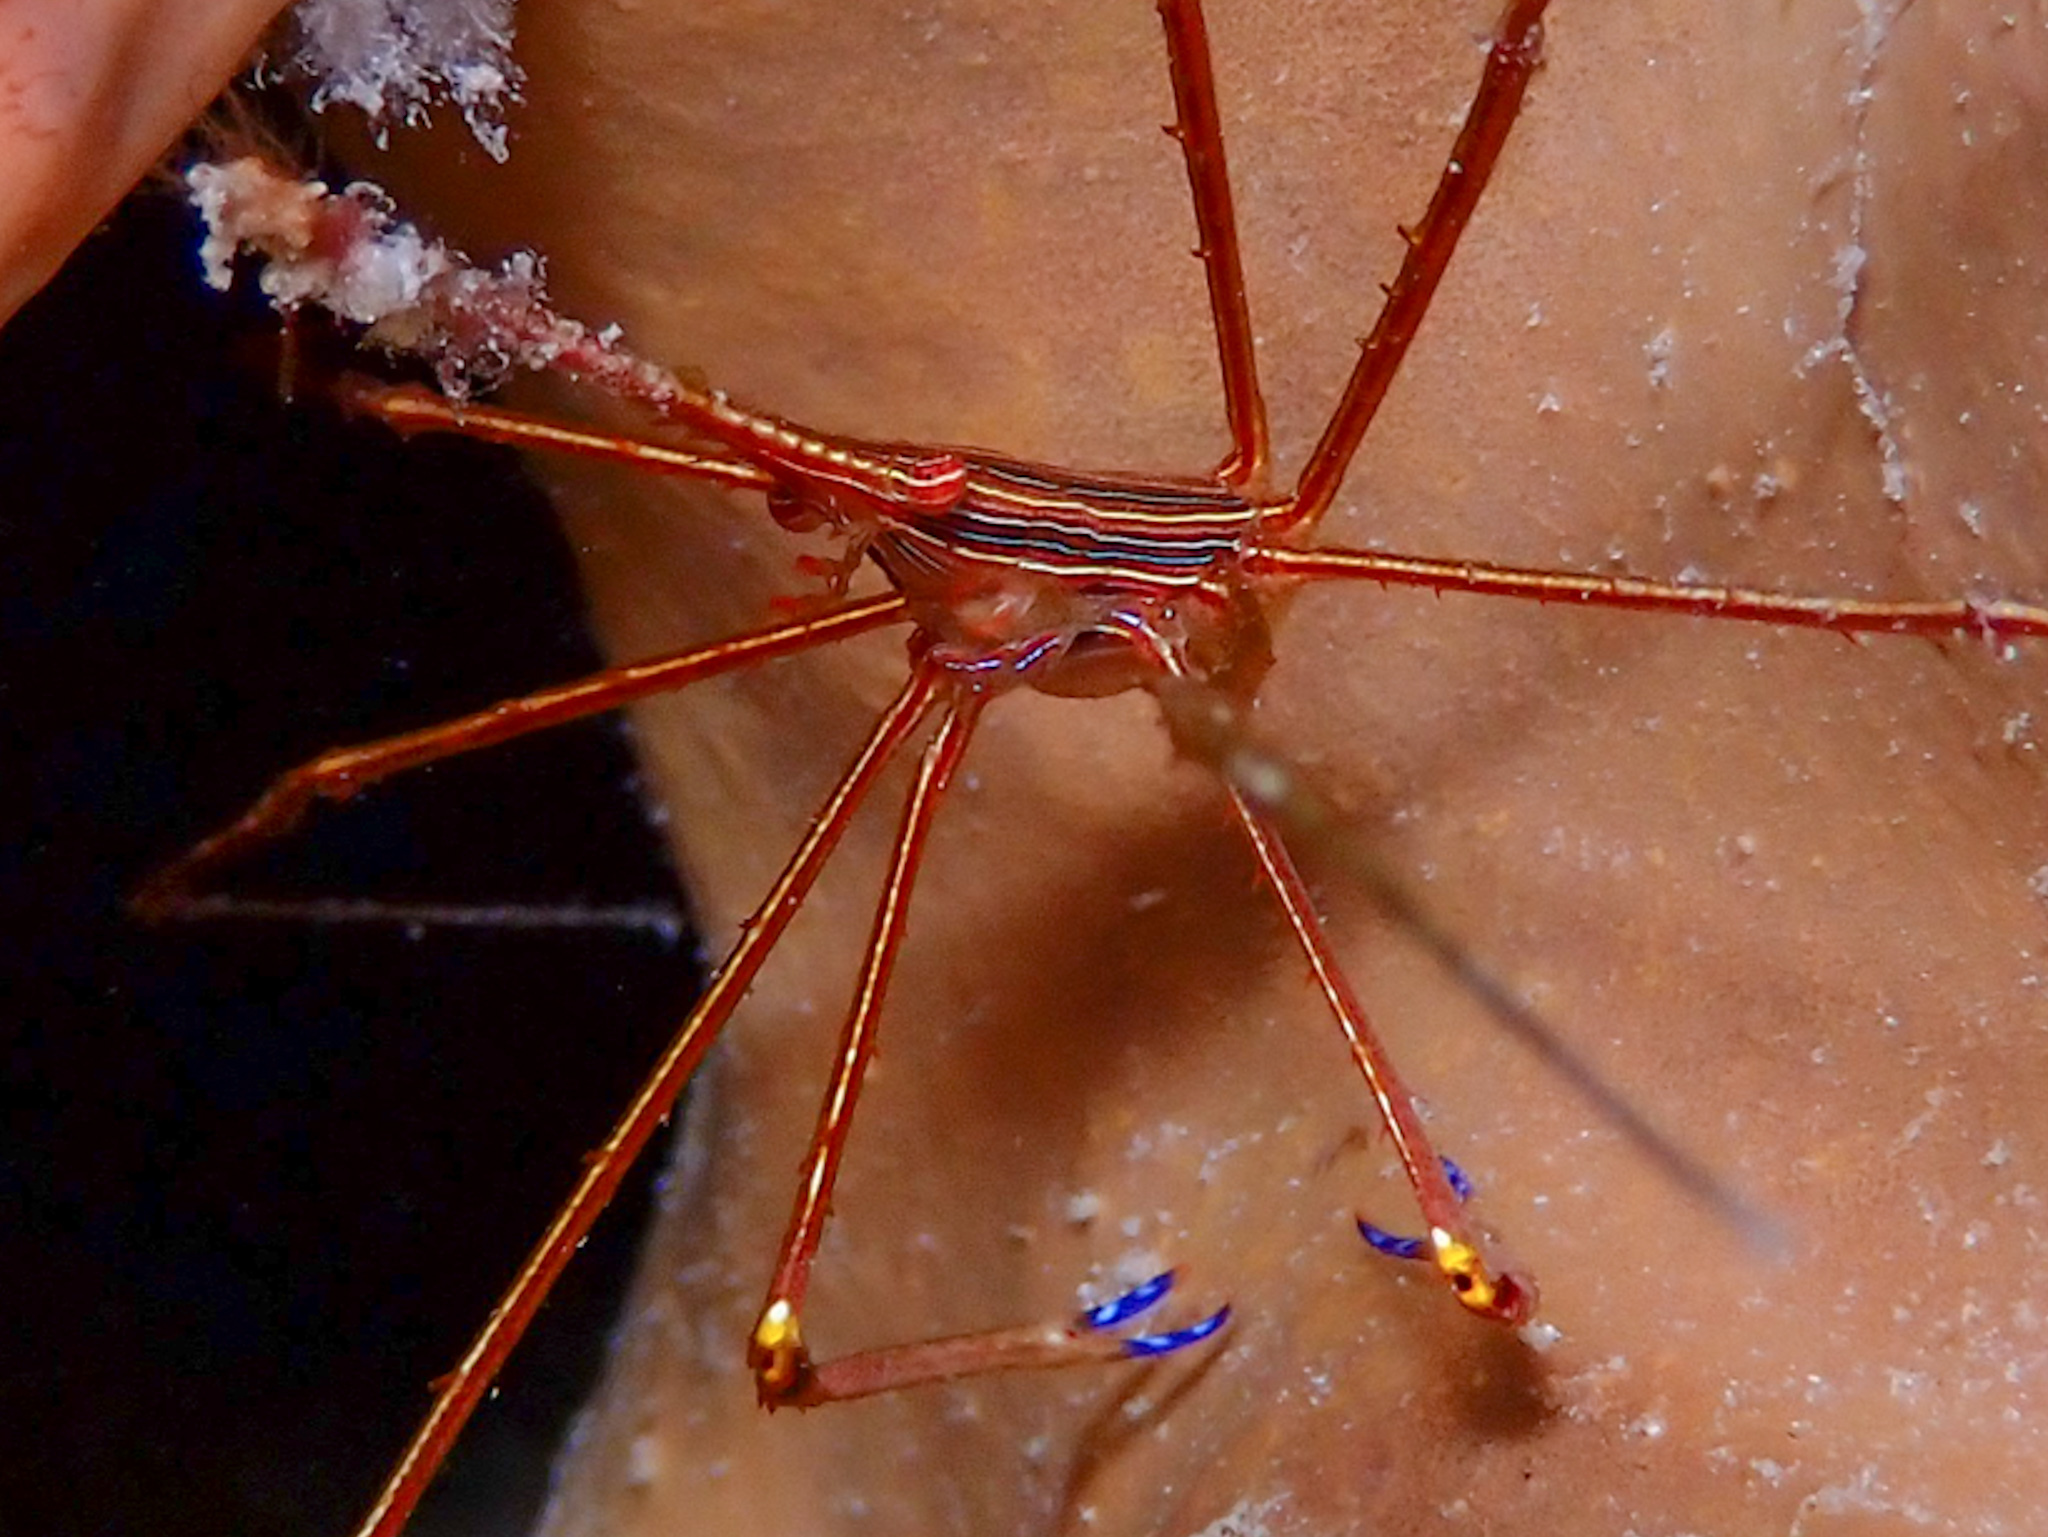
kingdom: Animalia
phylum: Arthropoda
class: Malacostraca
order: Decapoda
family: Inachoididae
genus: Stenorhynchus
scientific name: Stenorhynchus seticornis
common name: Arrow crab
